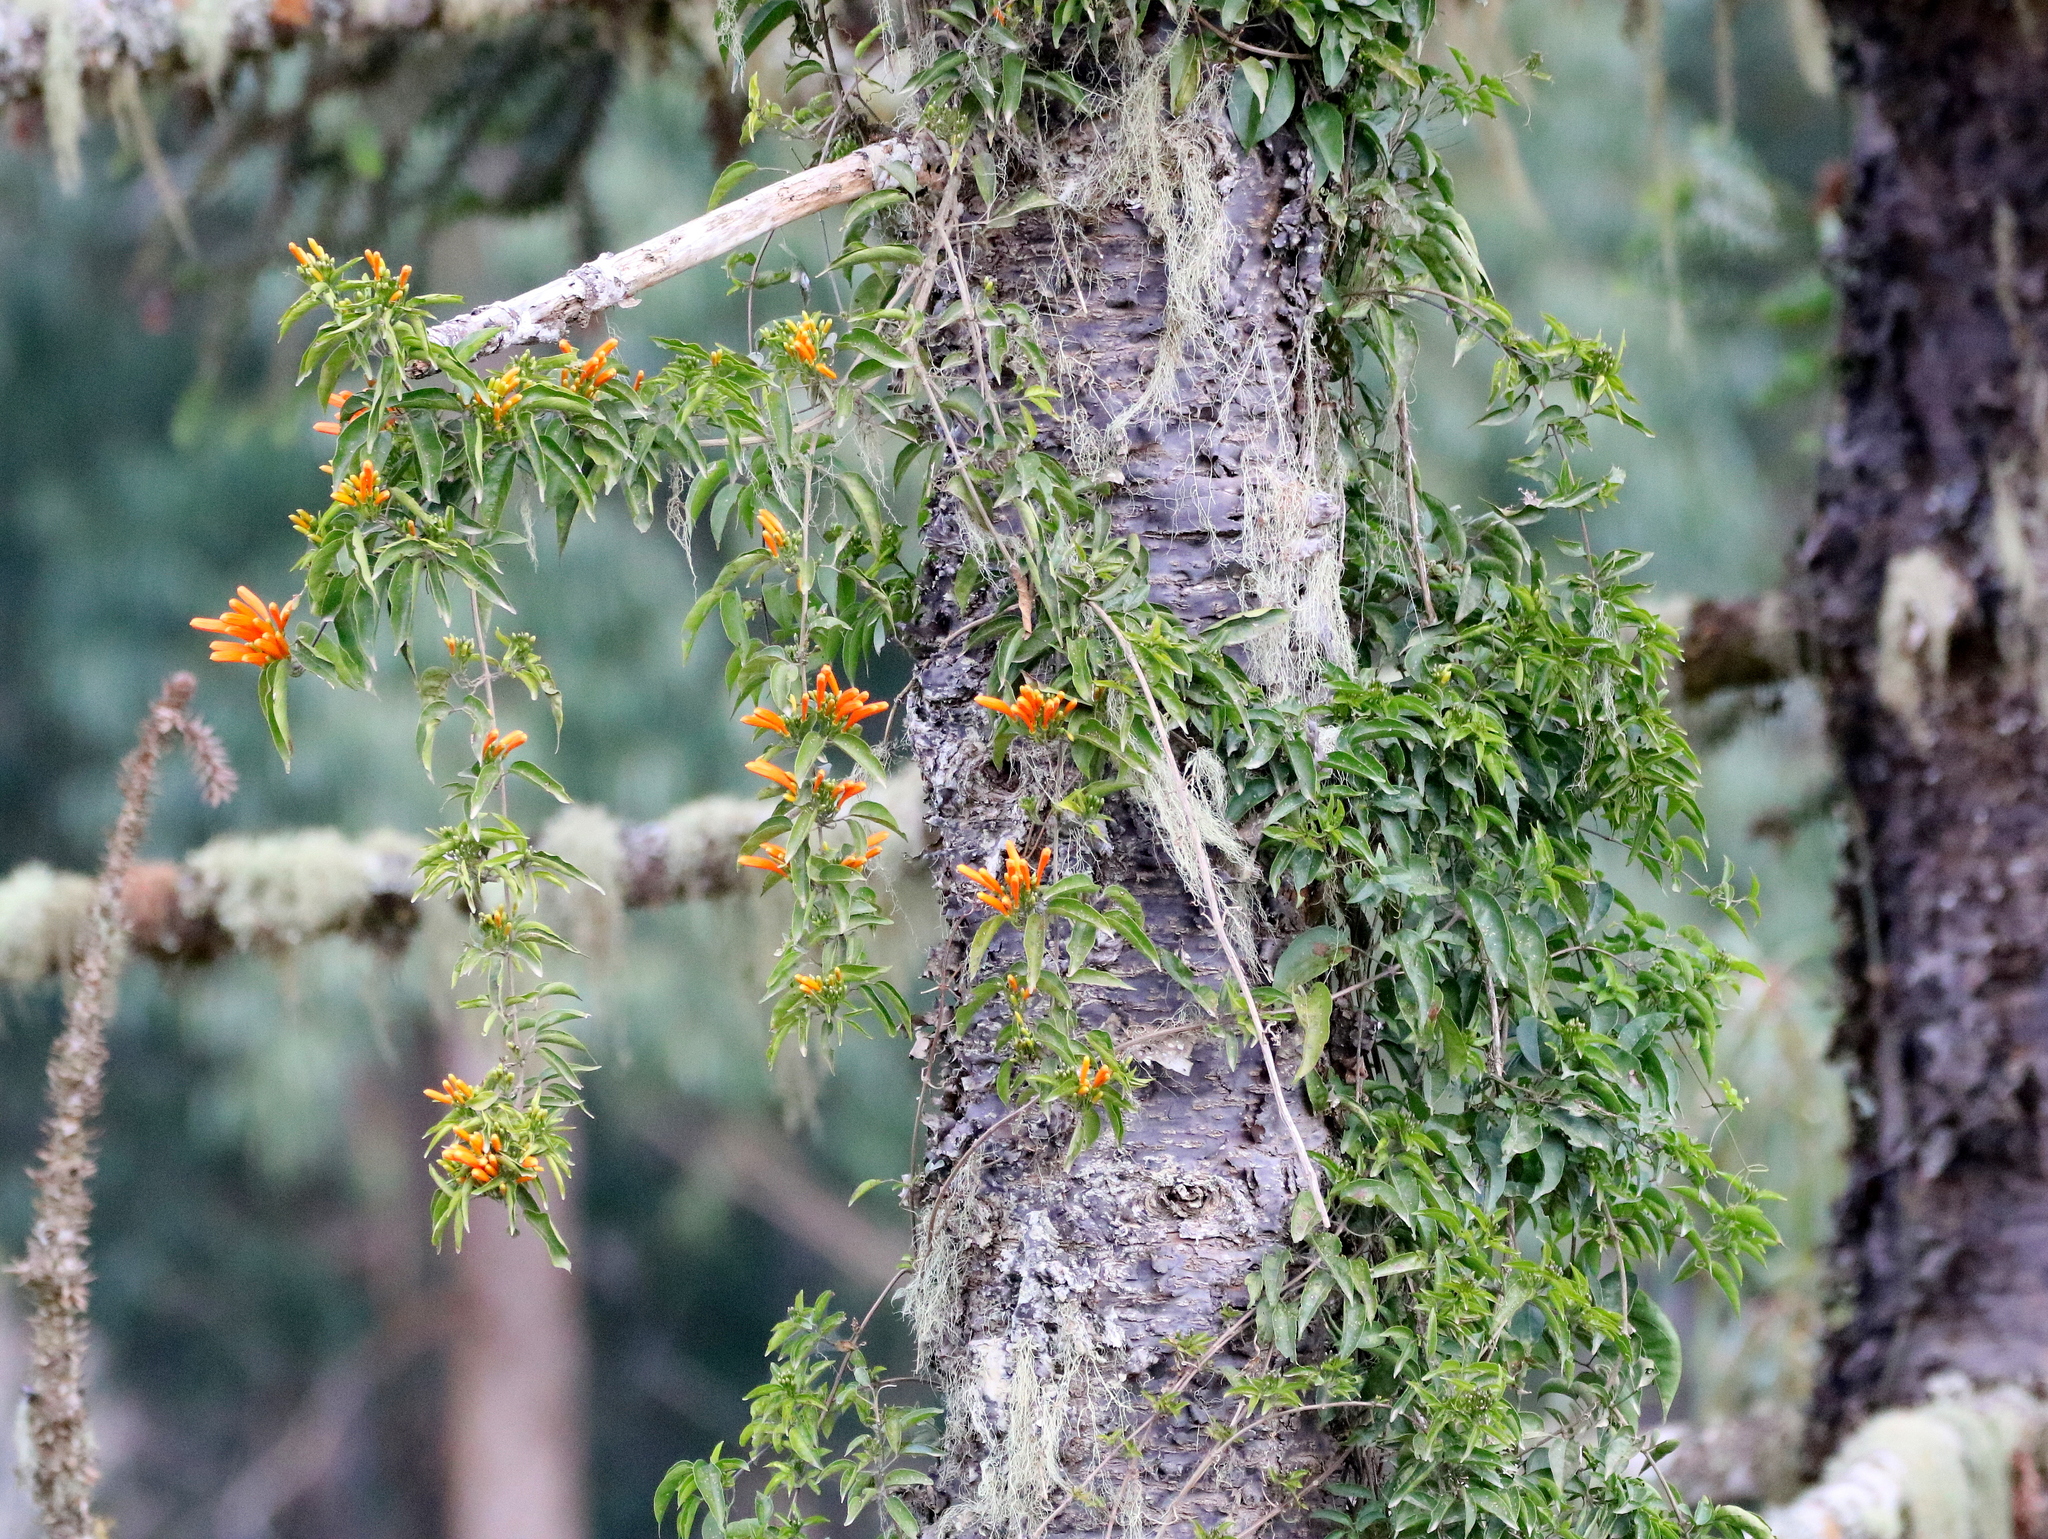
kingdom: Plantae
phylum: Tracheophyta
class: Magnoliopsida
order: Lamiales
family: Bignoniaceae
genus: Pyrostegia
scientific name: Pyrostegia venusta
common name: Flamevine
